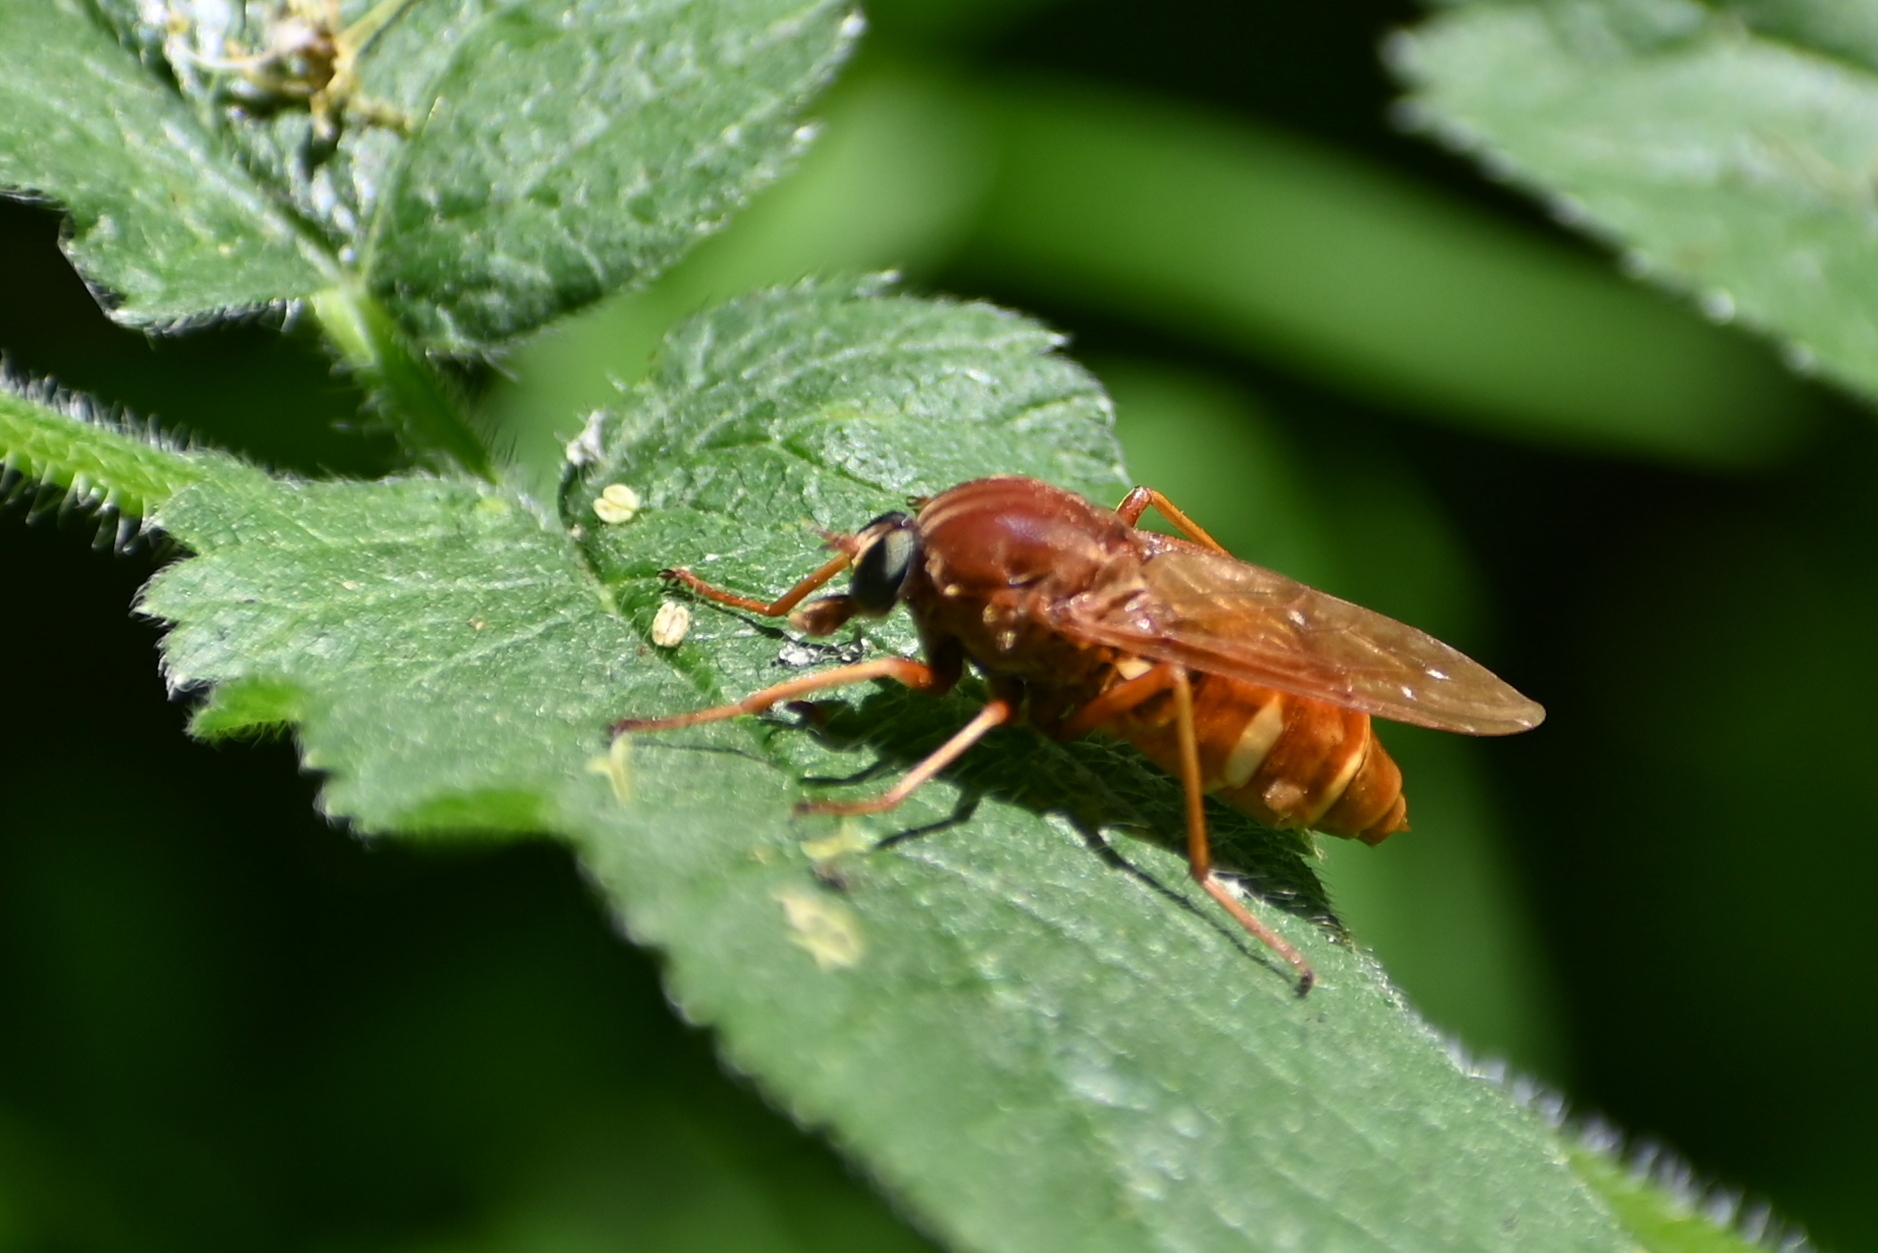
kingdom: Animalia
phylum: Arthropoda
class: Insecta
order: Diptera
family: Xylophagidae
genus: Coenomyia
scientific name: Coenomyia ferruginea
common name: Stink fly
